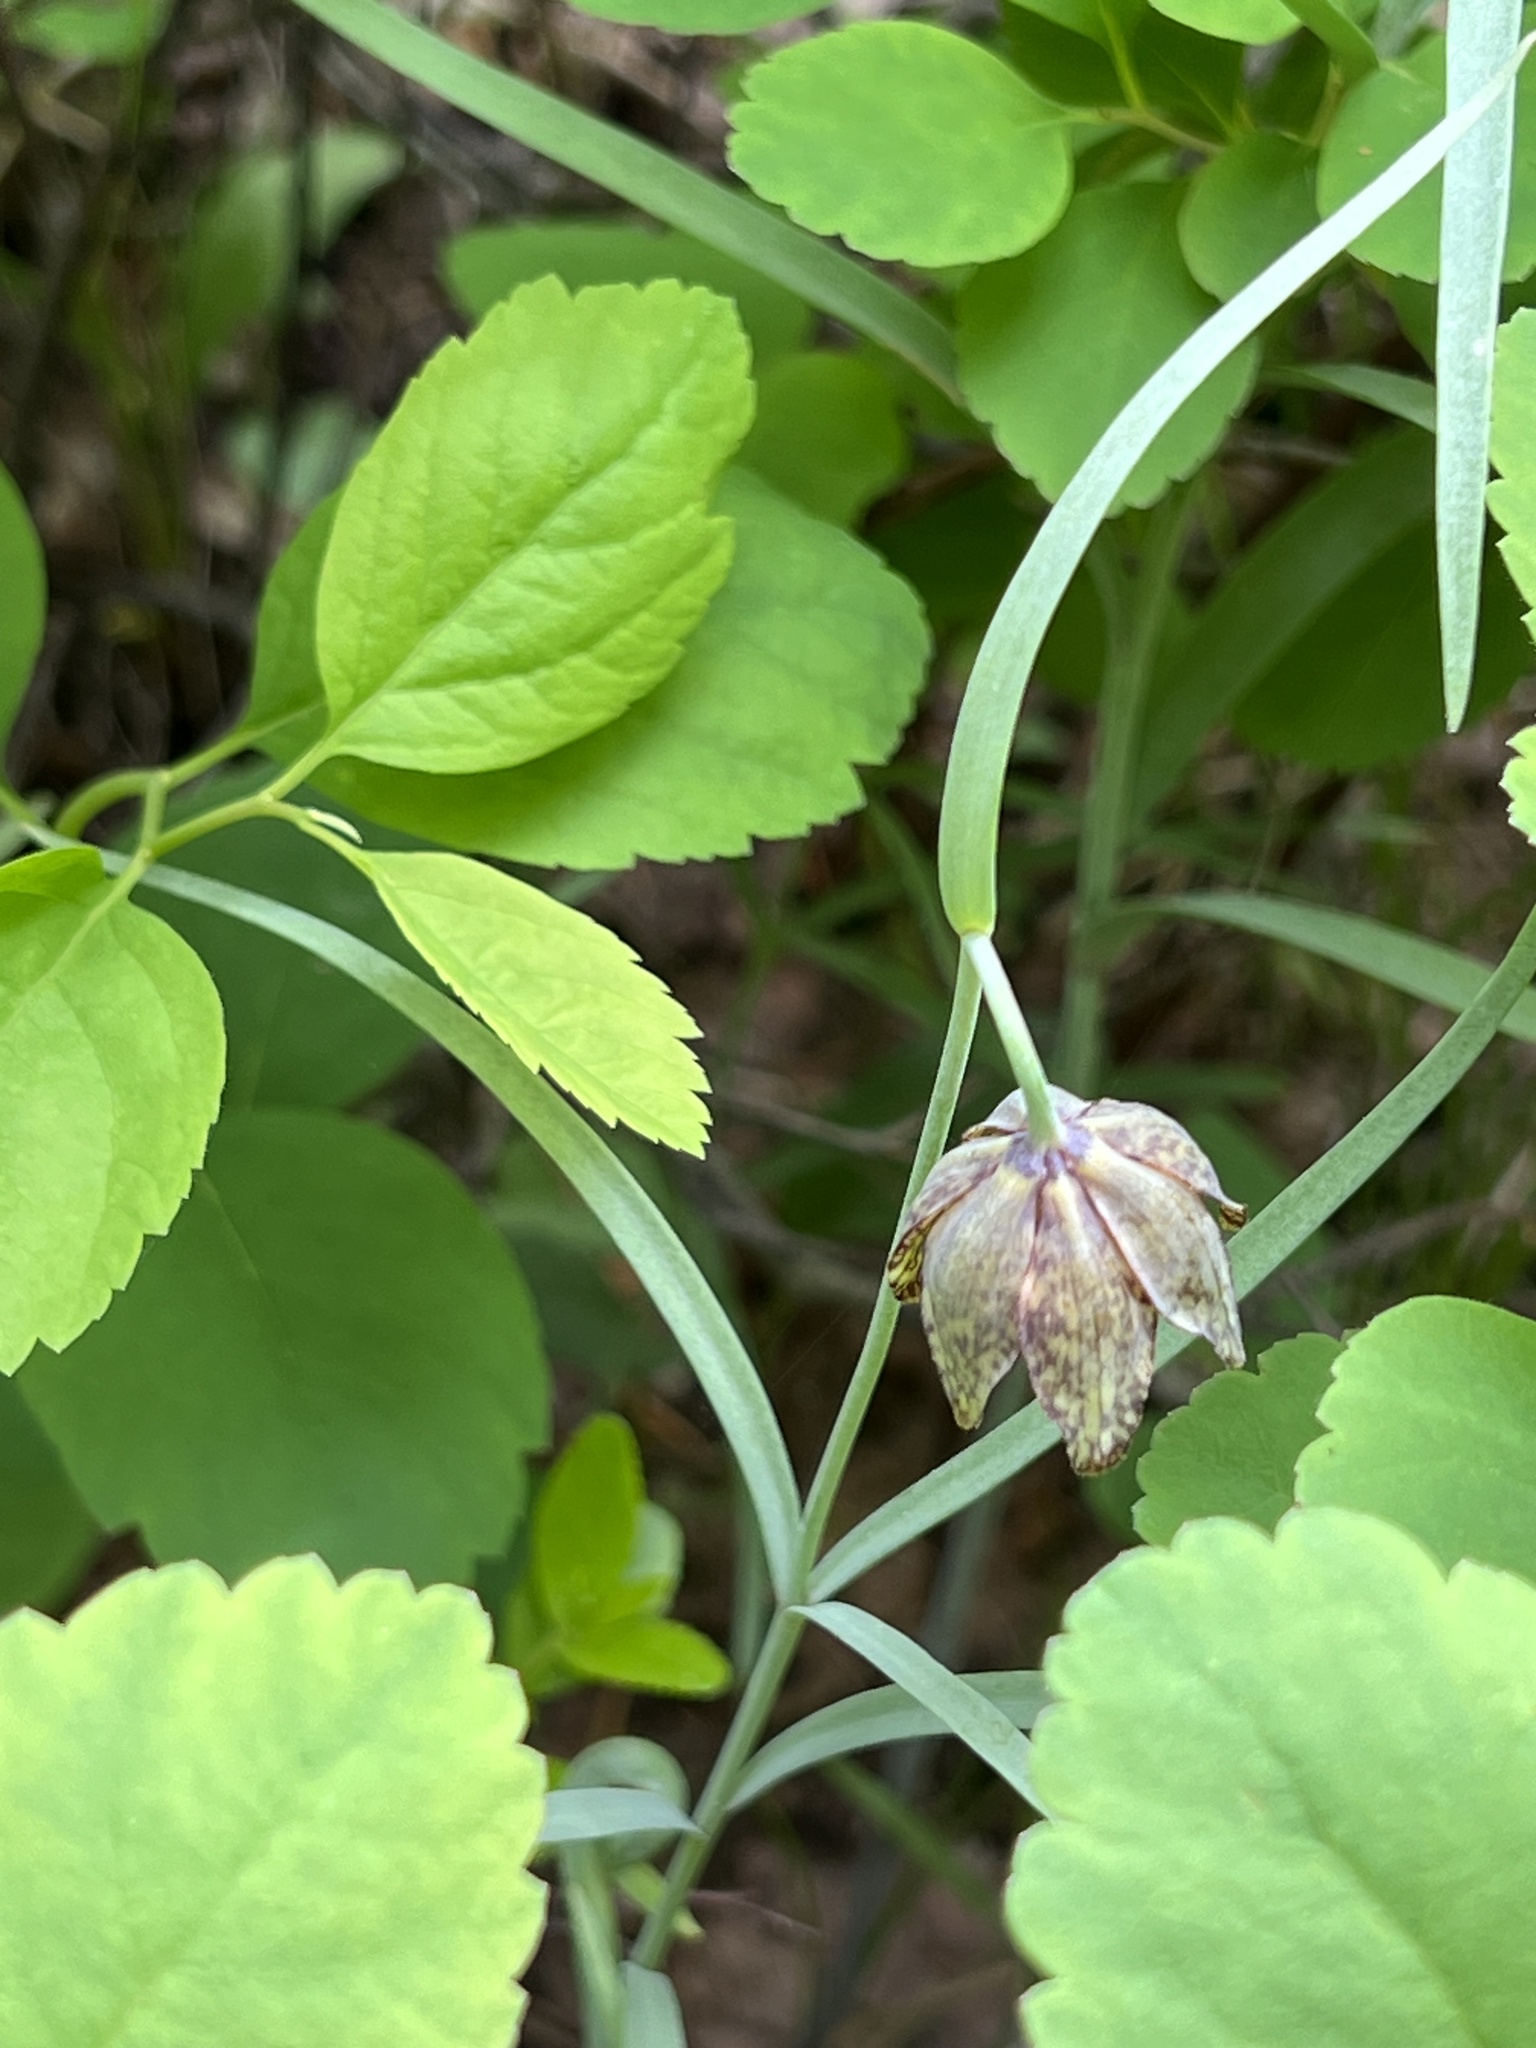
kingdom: Plantae
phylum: Tracheophyta
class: Liliopsida
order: Liliales
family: Liliaceae
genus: Fritillaria
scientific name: Fritillaria atropurpurea
